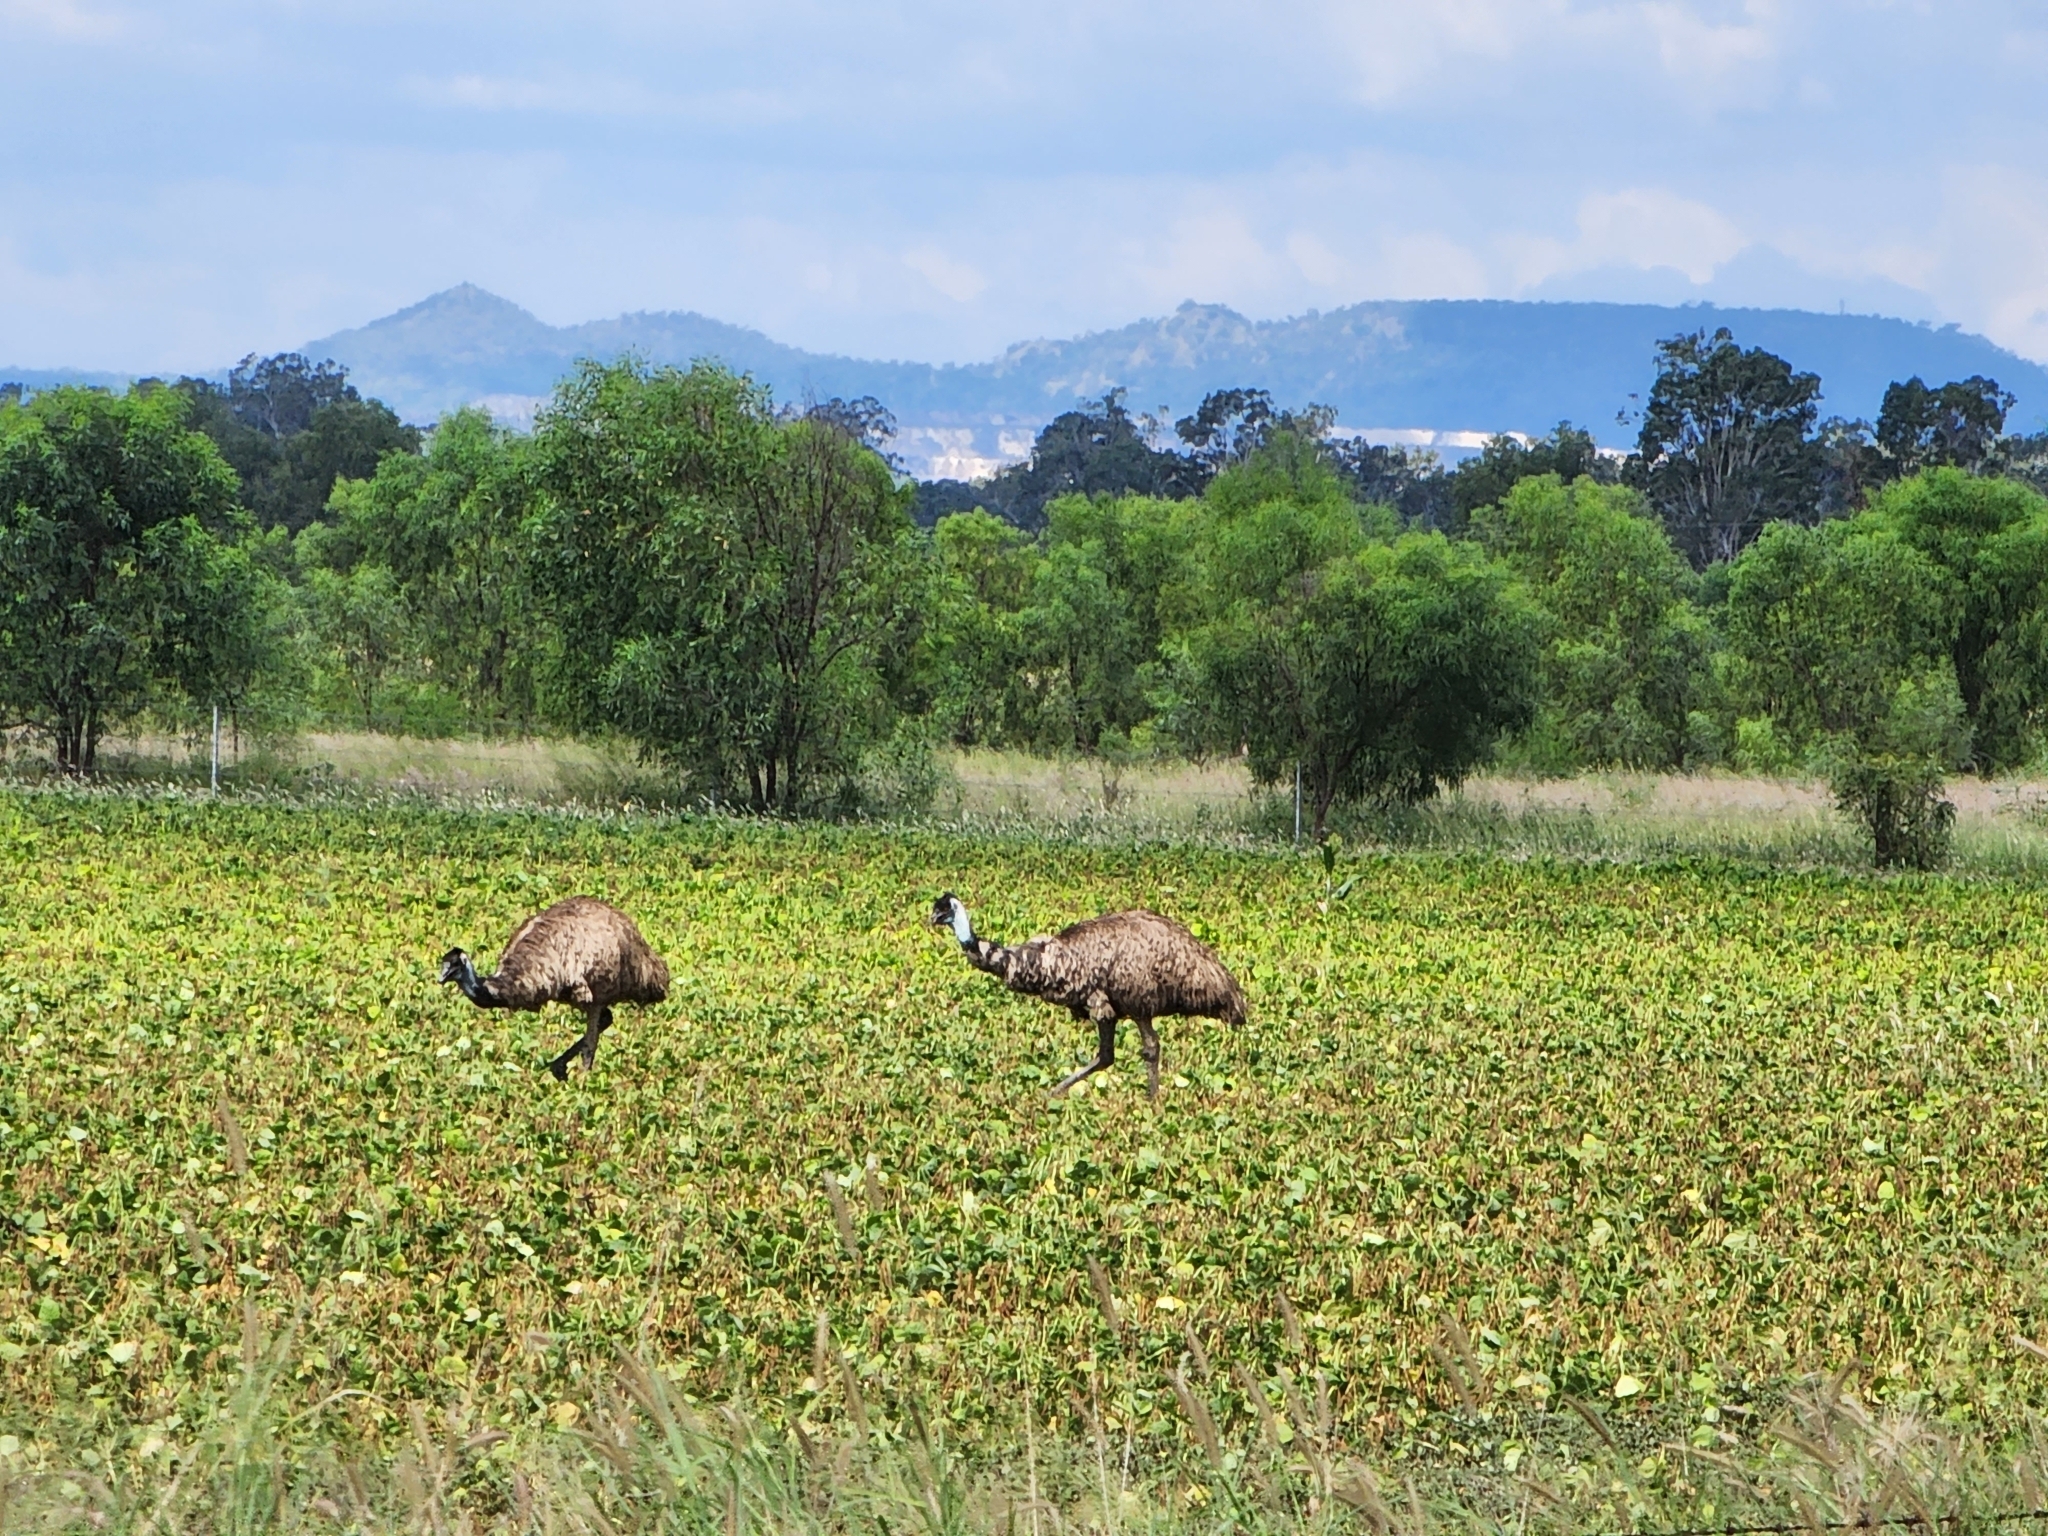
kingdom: Animalia
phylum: Chordata
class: Aves
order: Casuariiformes
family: Dromaiidae
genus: Dromaius
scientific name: Dromaius novaehollandiae
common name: Emu
